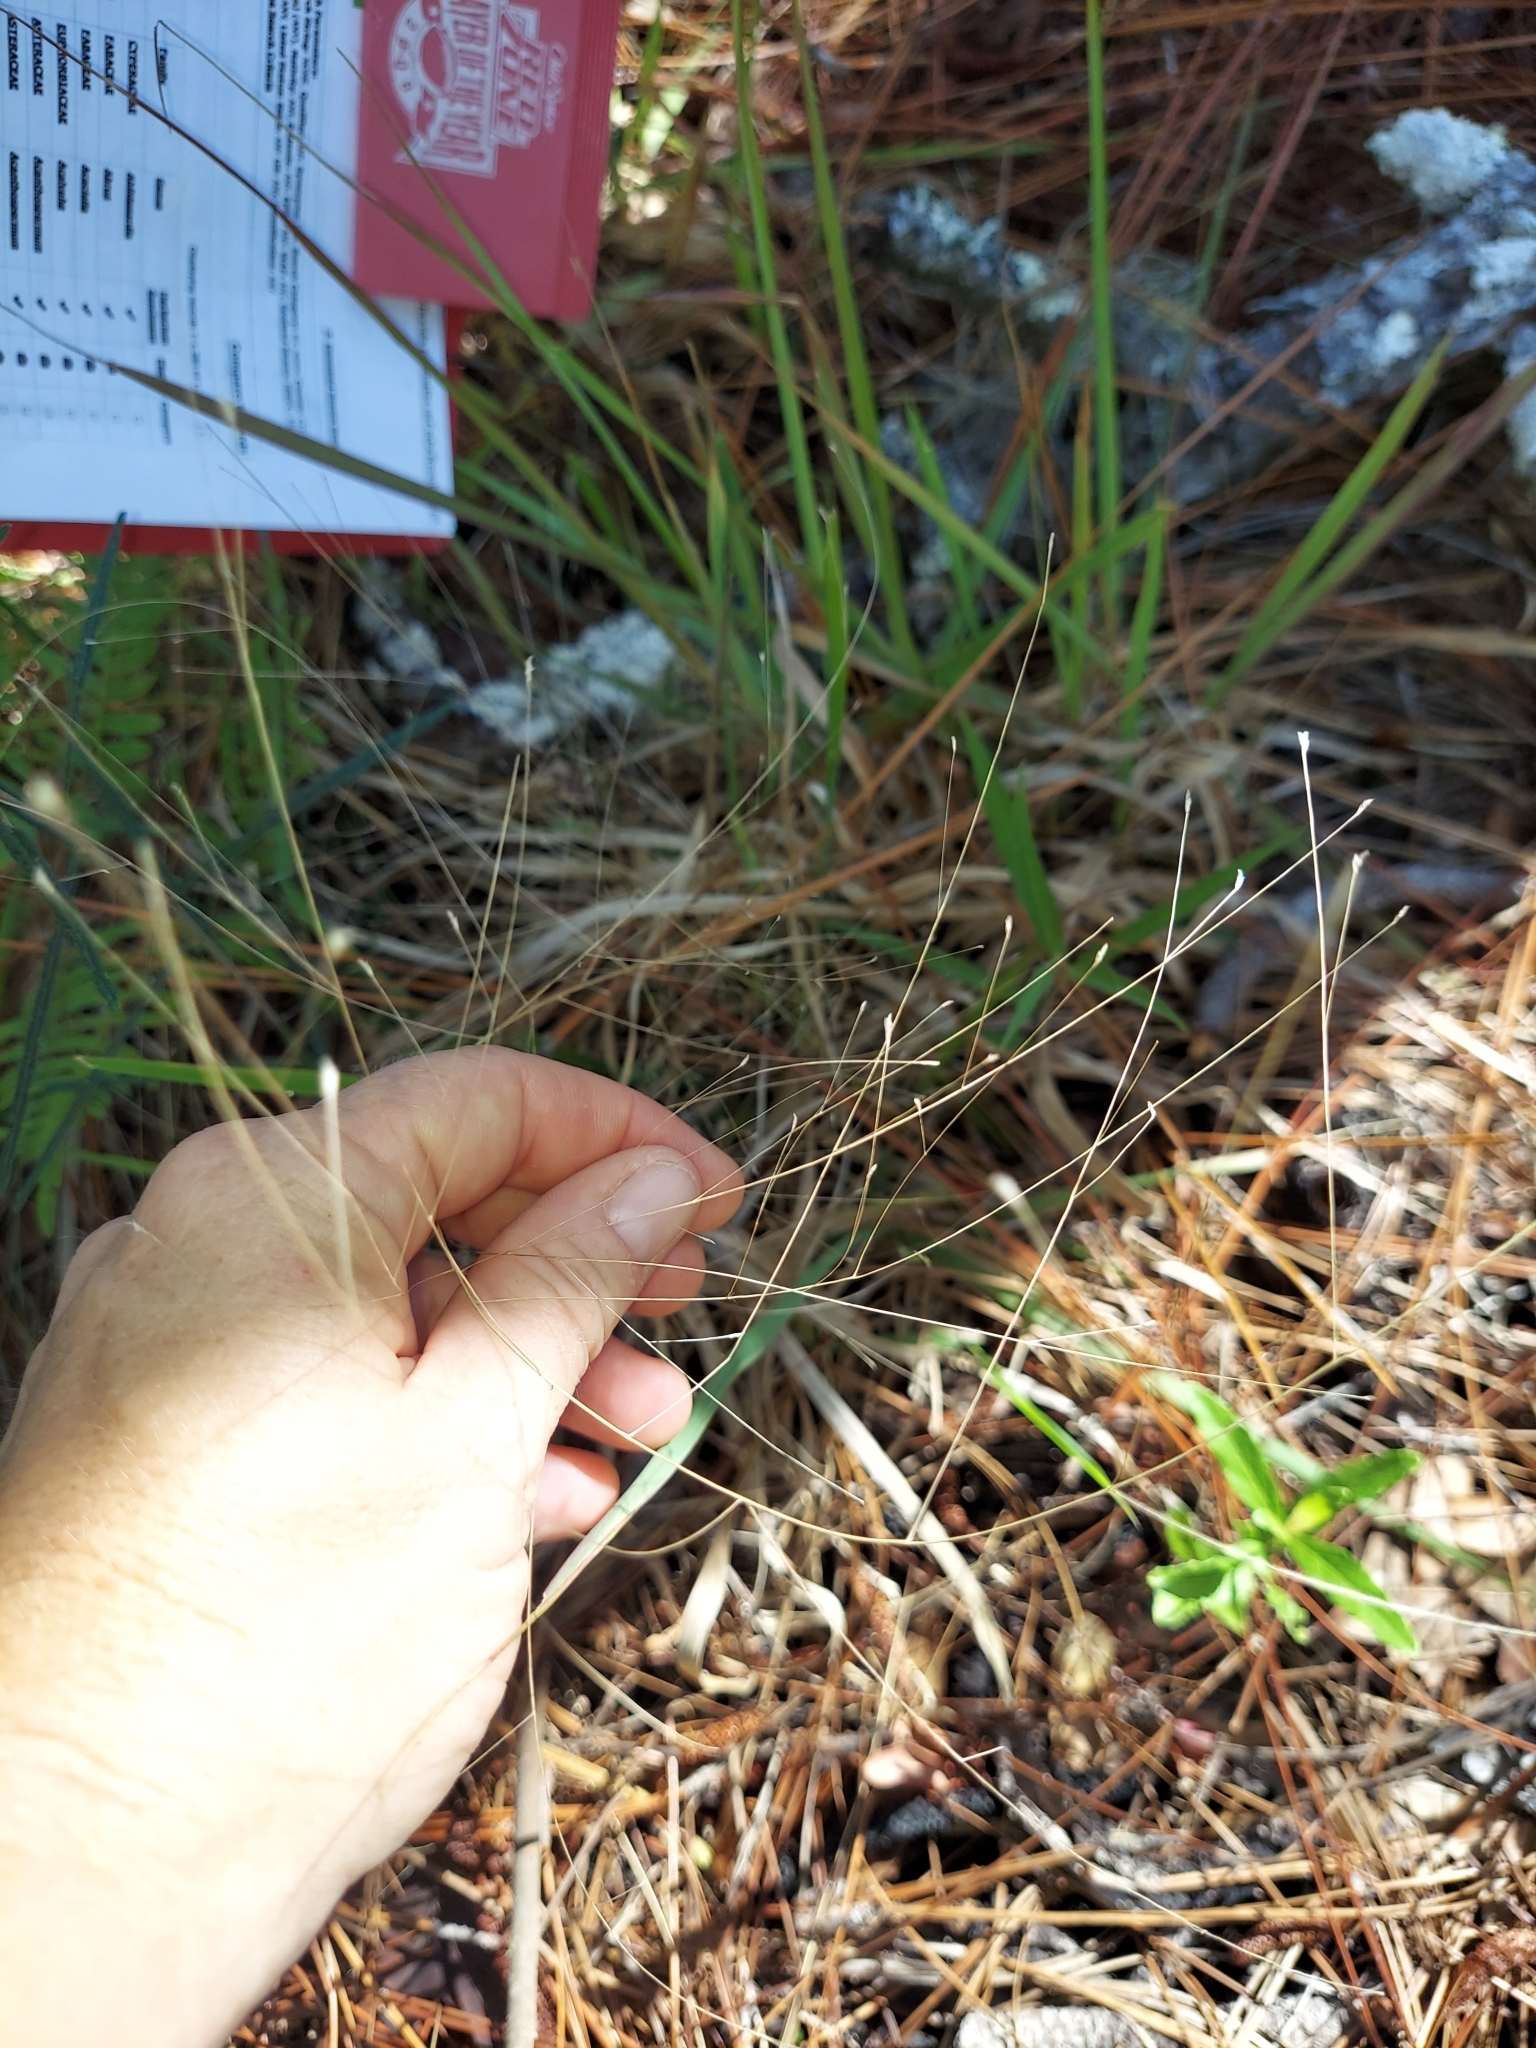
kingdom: Plantae
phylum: Tracheophyta
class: Liliopsida
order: Poales
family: Poaceae
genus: Eragrostis
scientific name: Eragrostis elliottii
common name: Elliott's love grass
